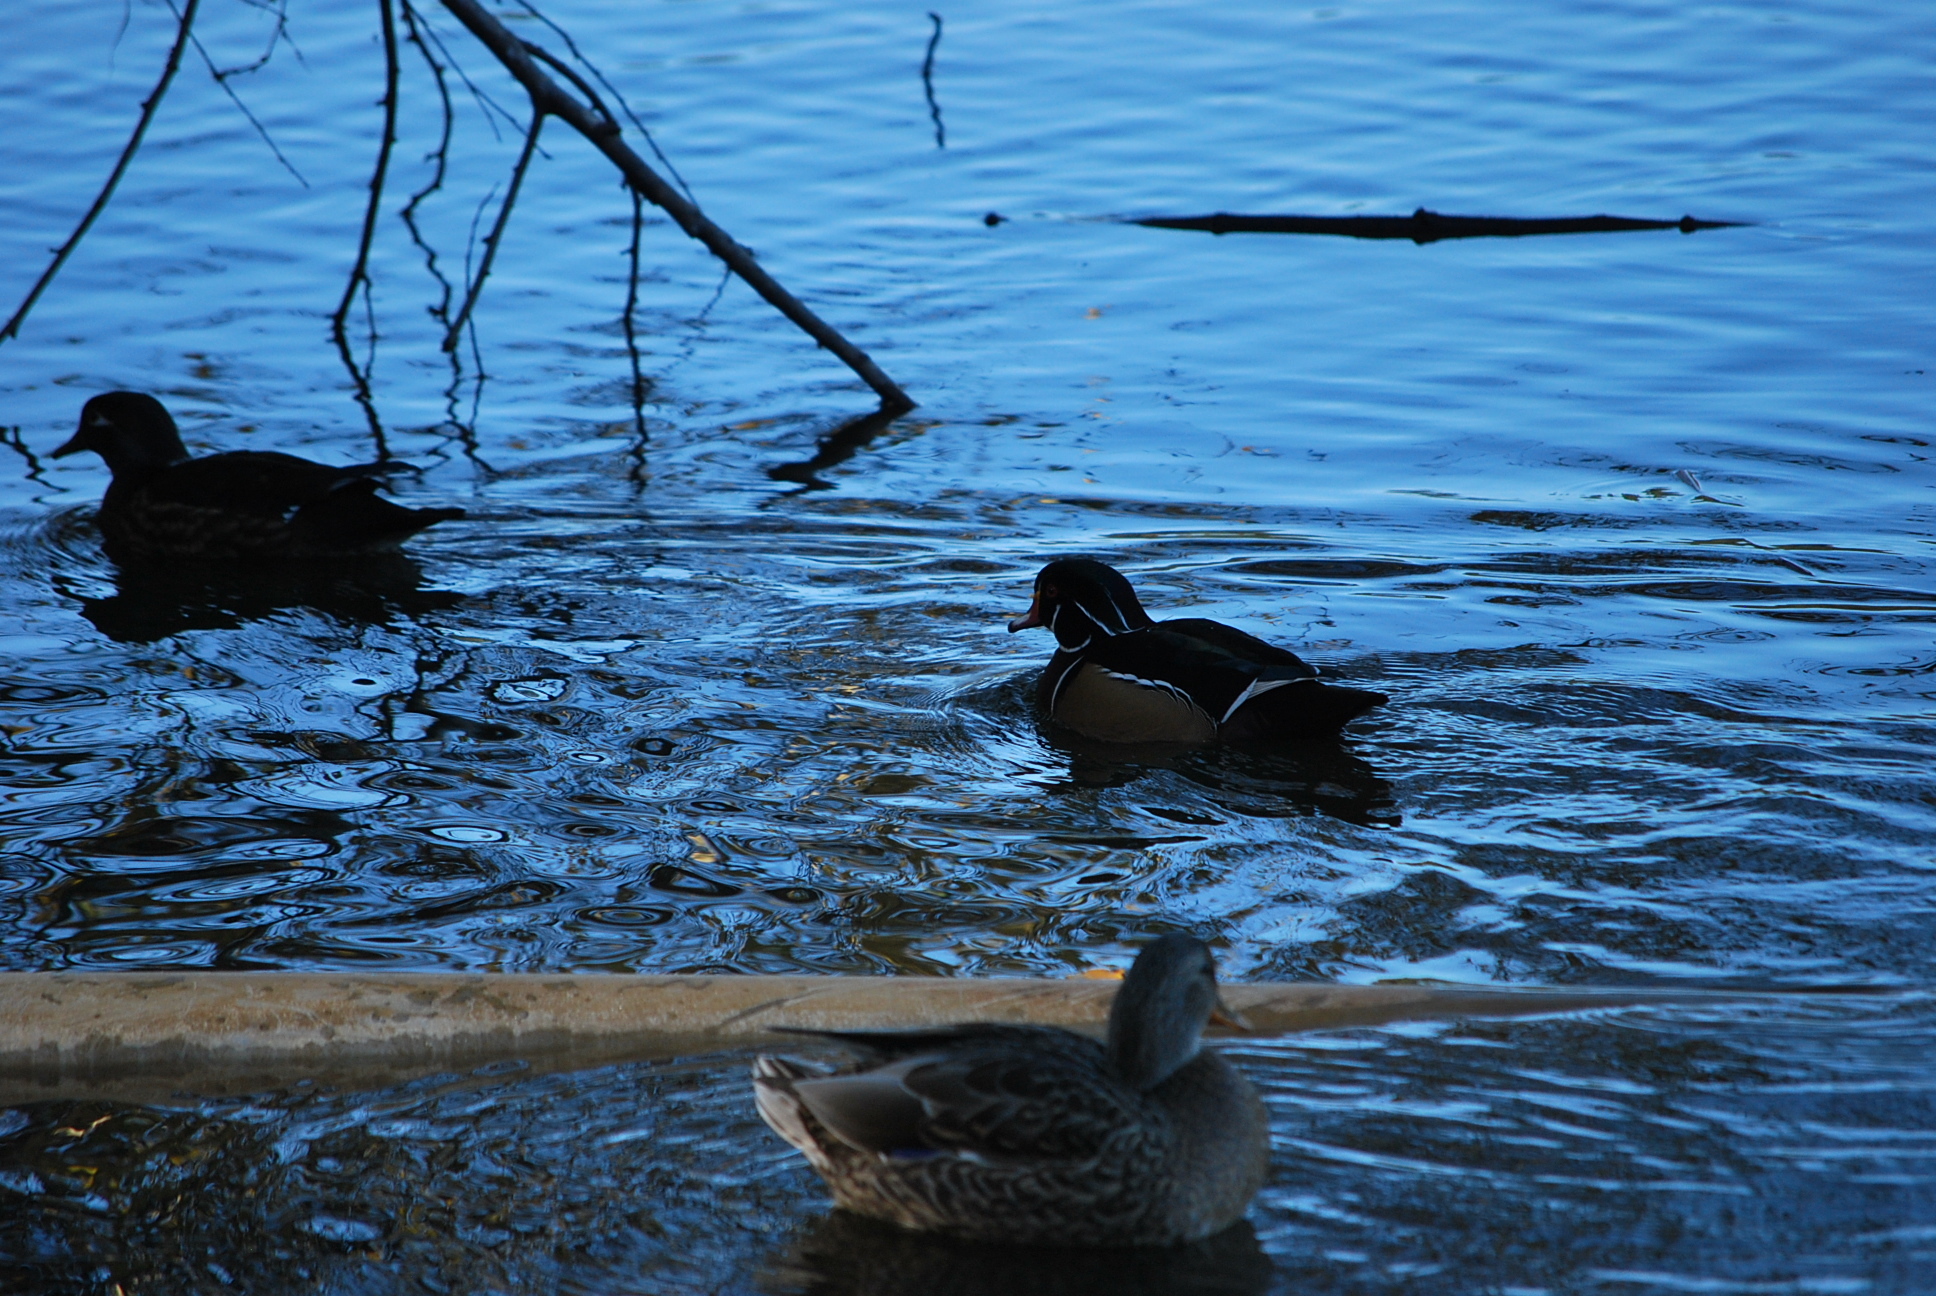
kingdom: Animalia
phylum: Chordata
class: Aves
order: Anseriformes
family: Anatidae
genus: Aix
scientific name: Aix sponsa
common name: Wood duck
